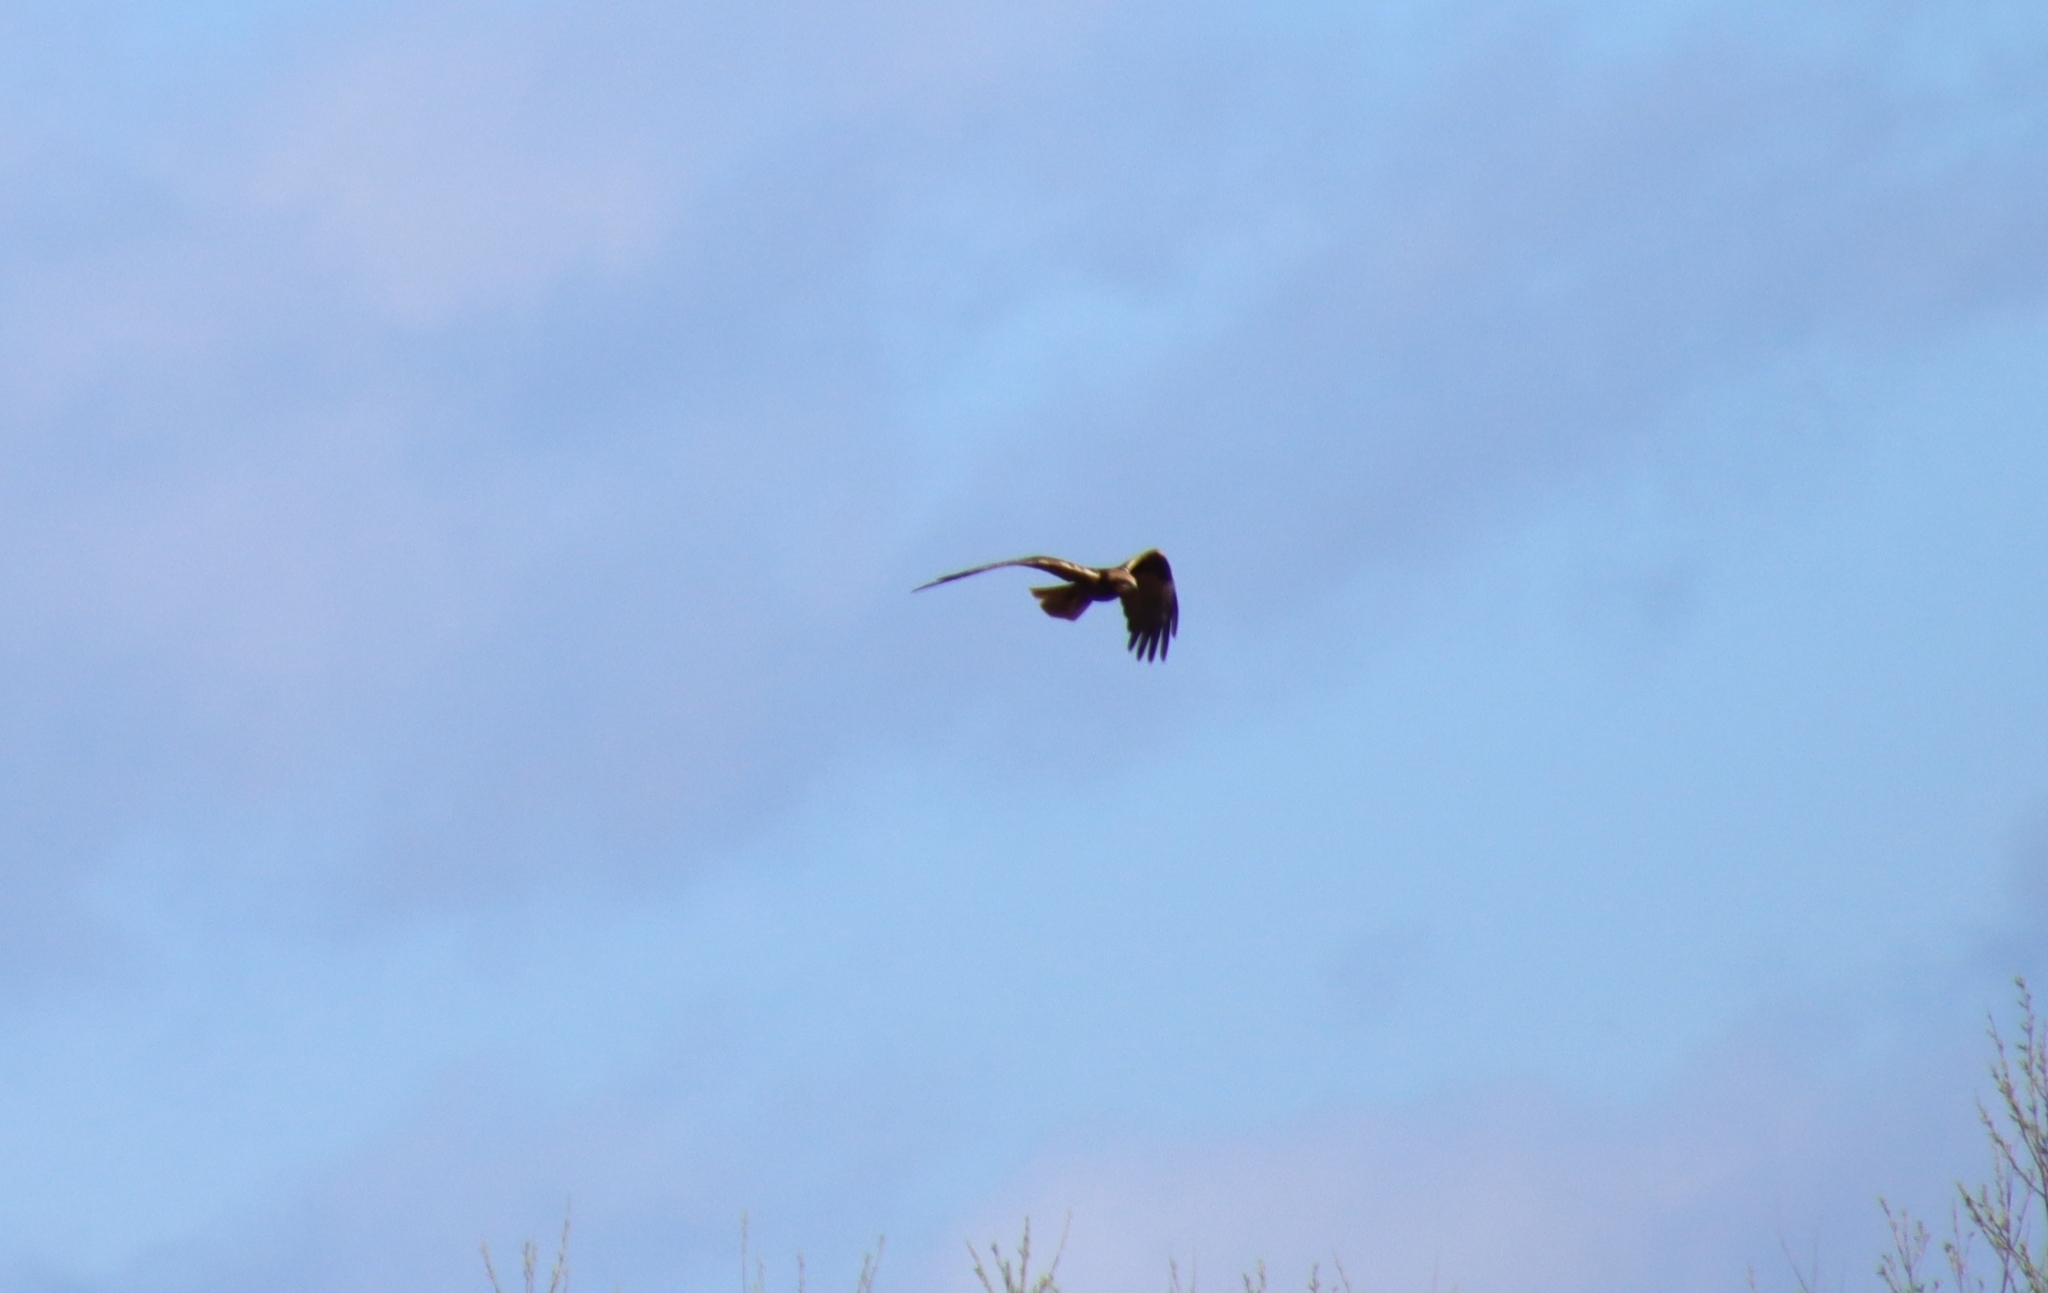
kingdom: Animalia
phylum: Chordata
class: Aves
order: Accipitriformes
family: Accipitridae
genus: Circus
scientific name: Circus aeruginosus
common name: Western marsh harrier
